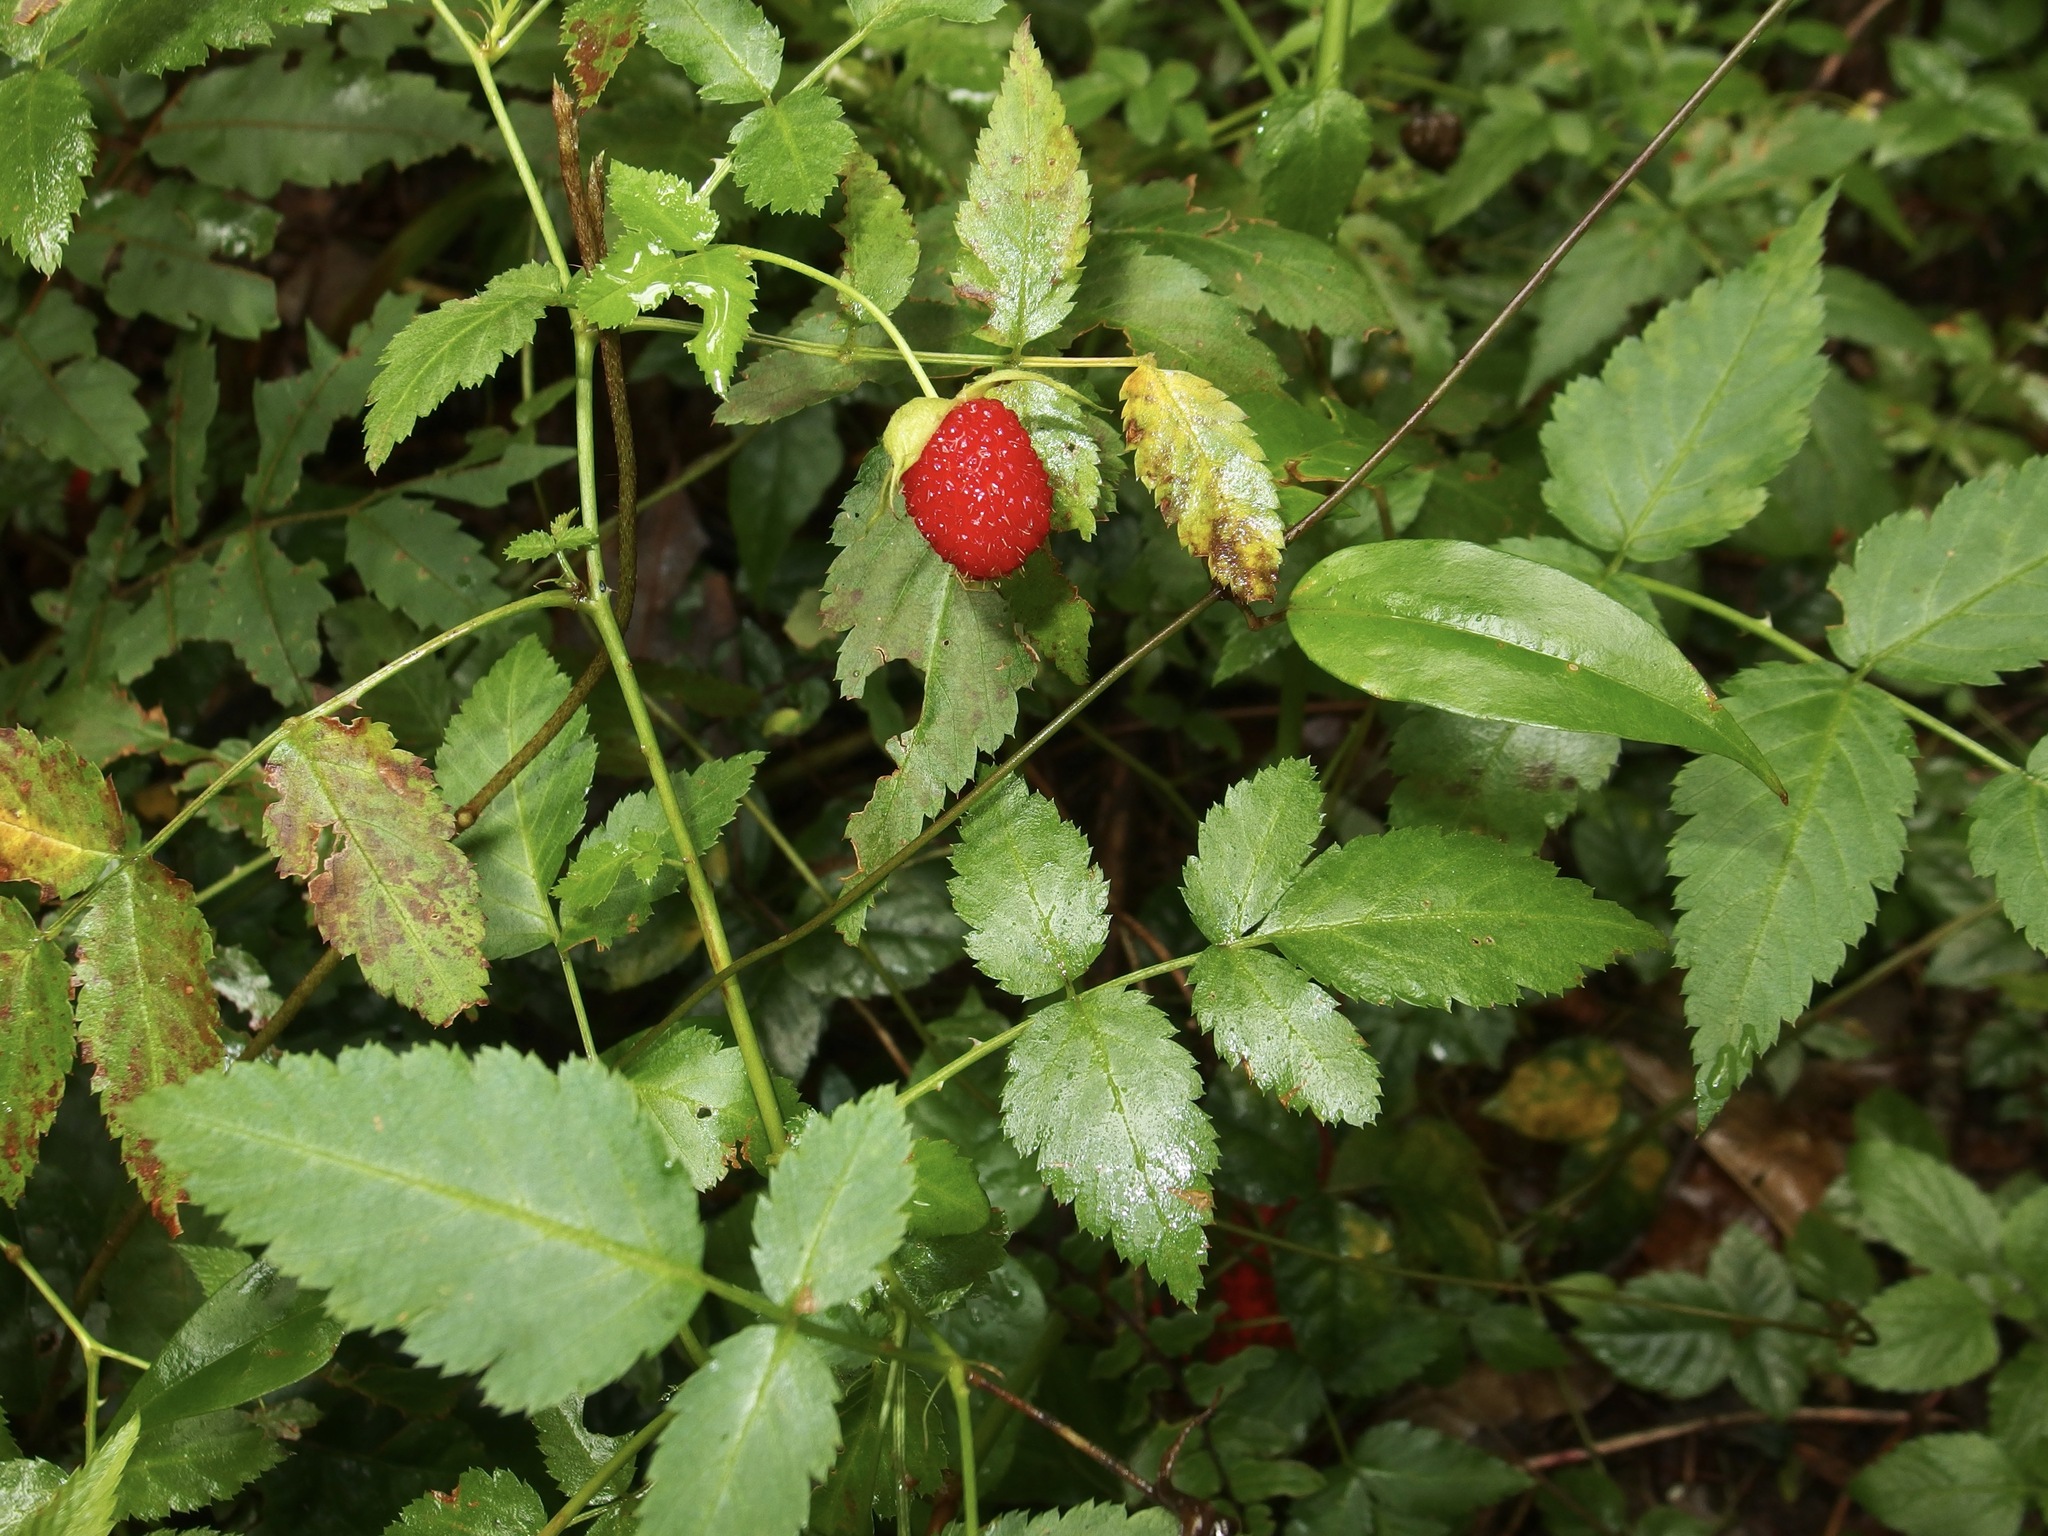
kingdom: Plantae
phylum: Tracheophyta
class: Magnoliopsida
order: Rosales
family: Rosaceae
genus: Rubus
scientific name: Rubus queenslandicus
